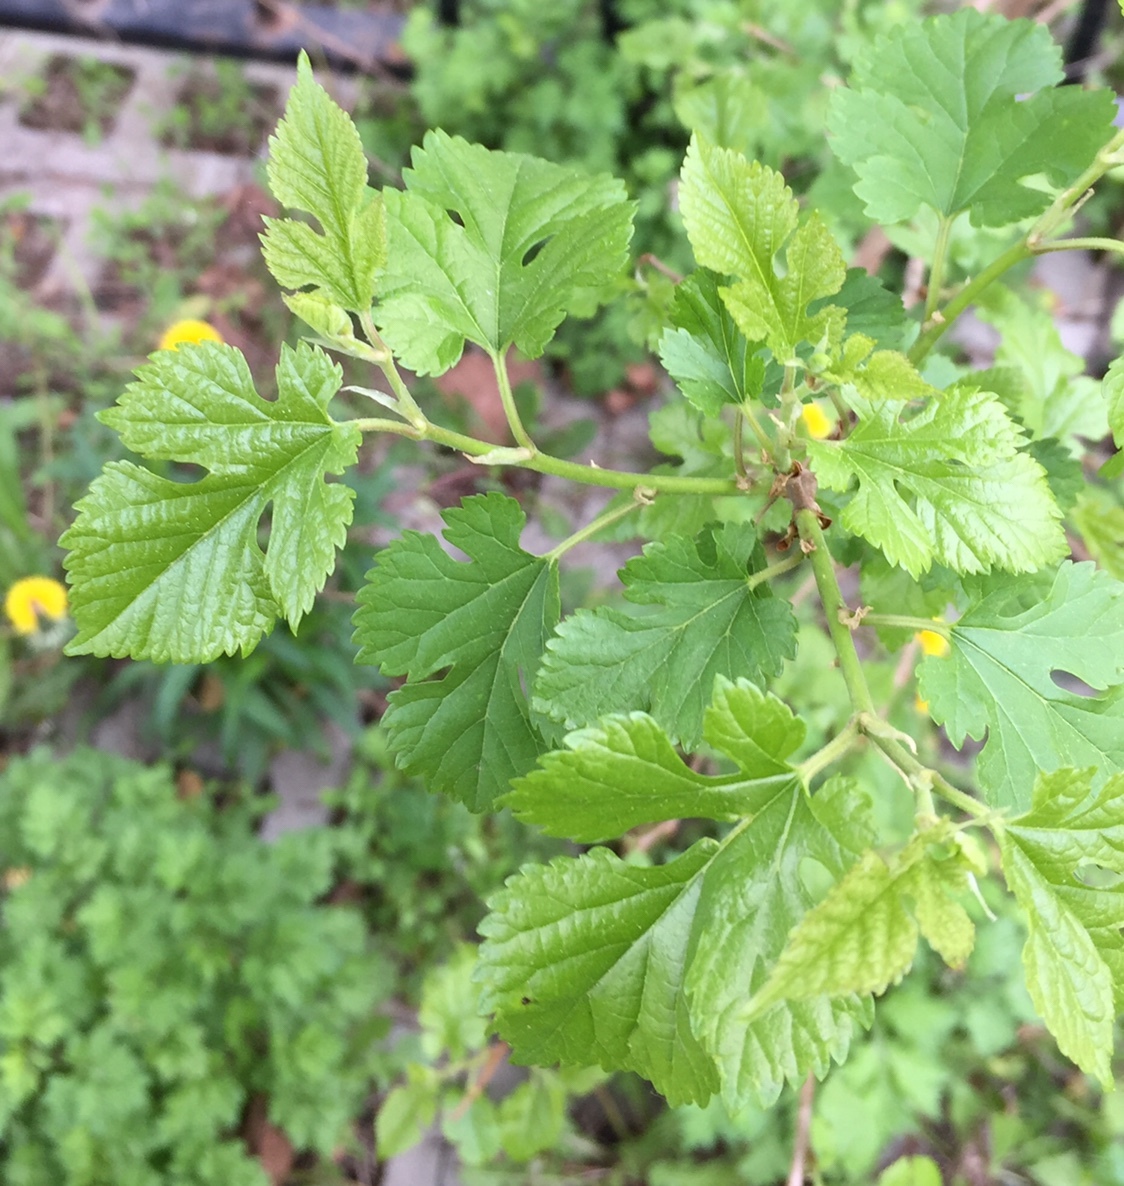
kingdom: Plantae
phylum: Tracheophyta
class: Magnoliopsida
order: Rosales
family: Moraceae
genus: Morus
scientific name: Morus alba
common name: White mulberry
